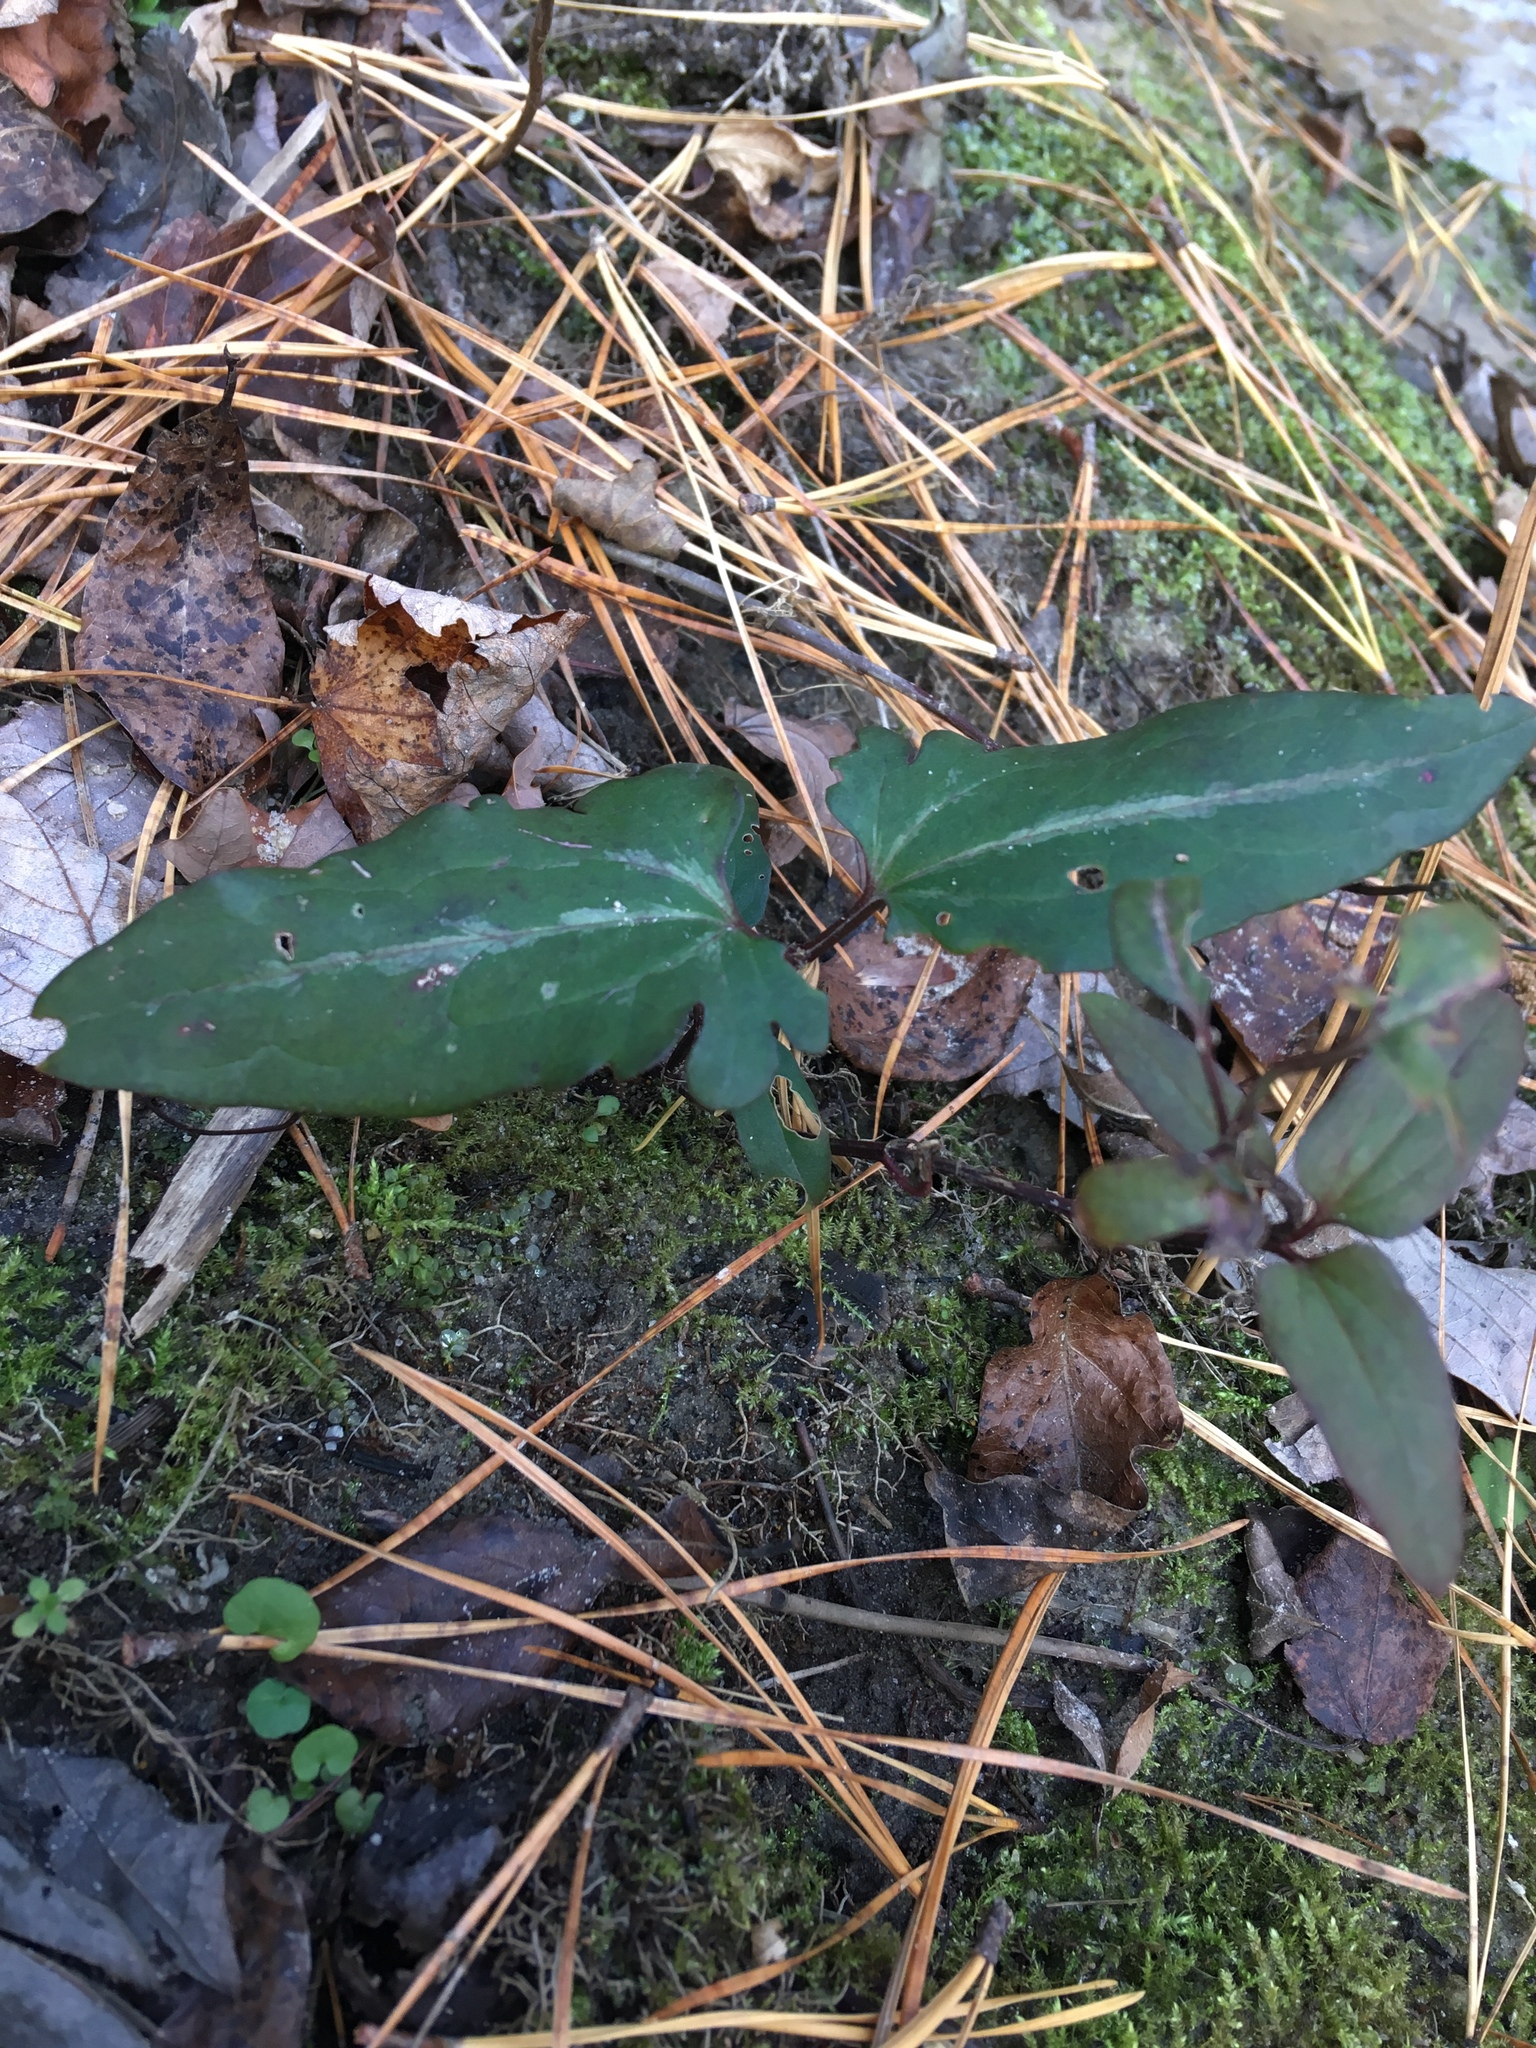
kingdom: Plantae
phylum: Tracheophyta
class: Magnoliopsida
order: Ranunculales
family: Ranunculaceae
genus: Clematis
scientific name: Clematis terniflora
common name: Sweet autumn clematis
